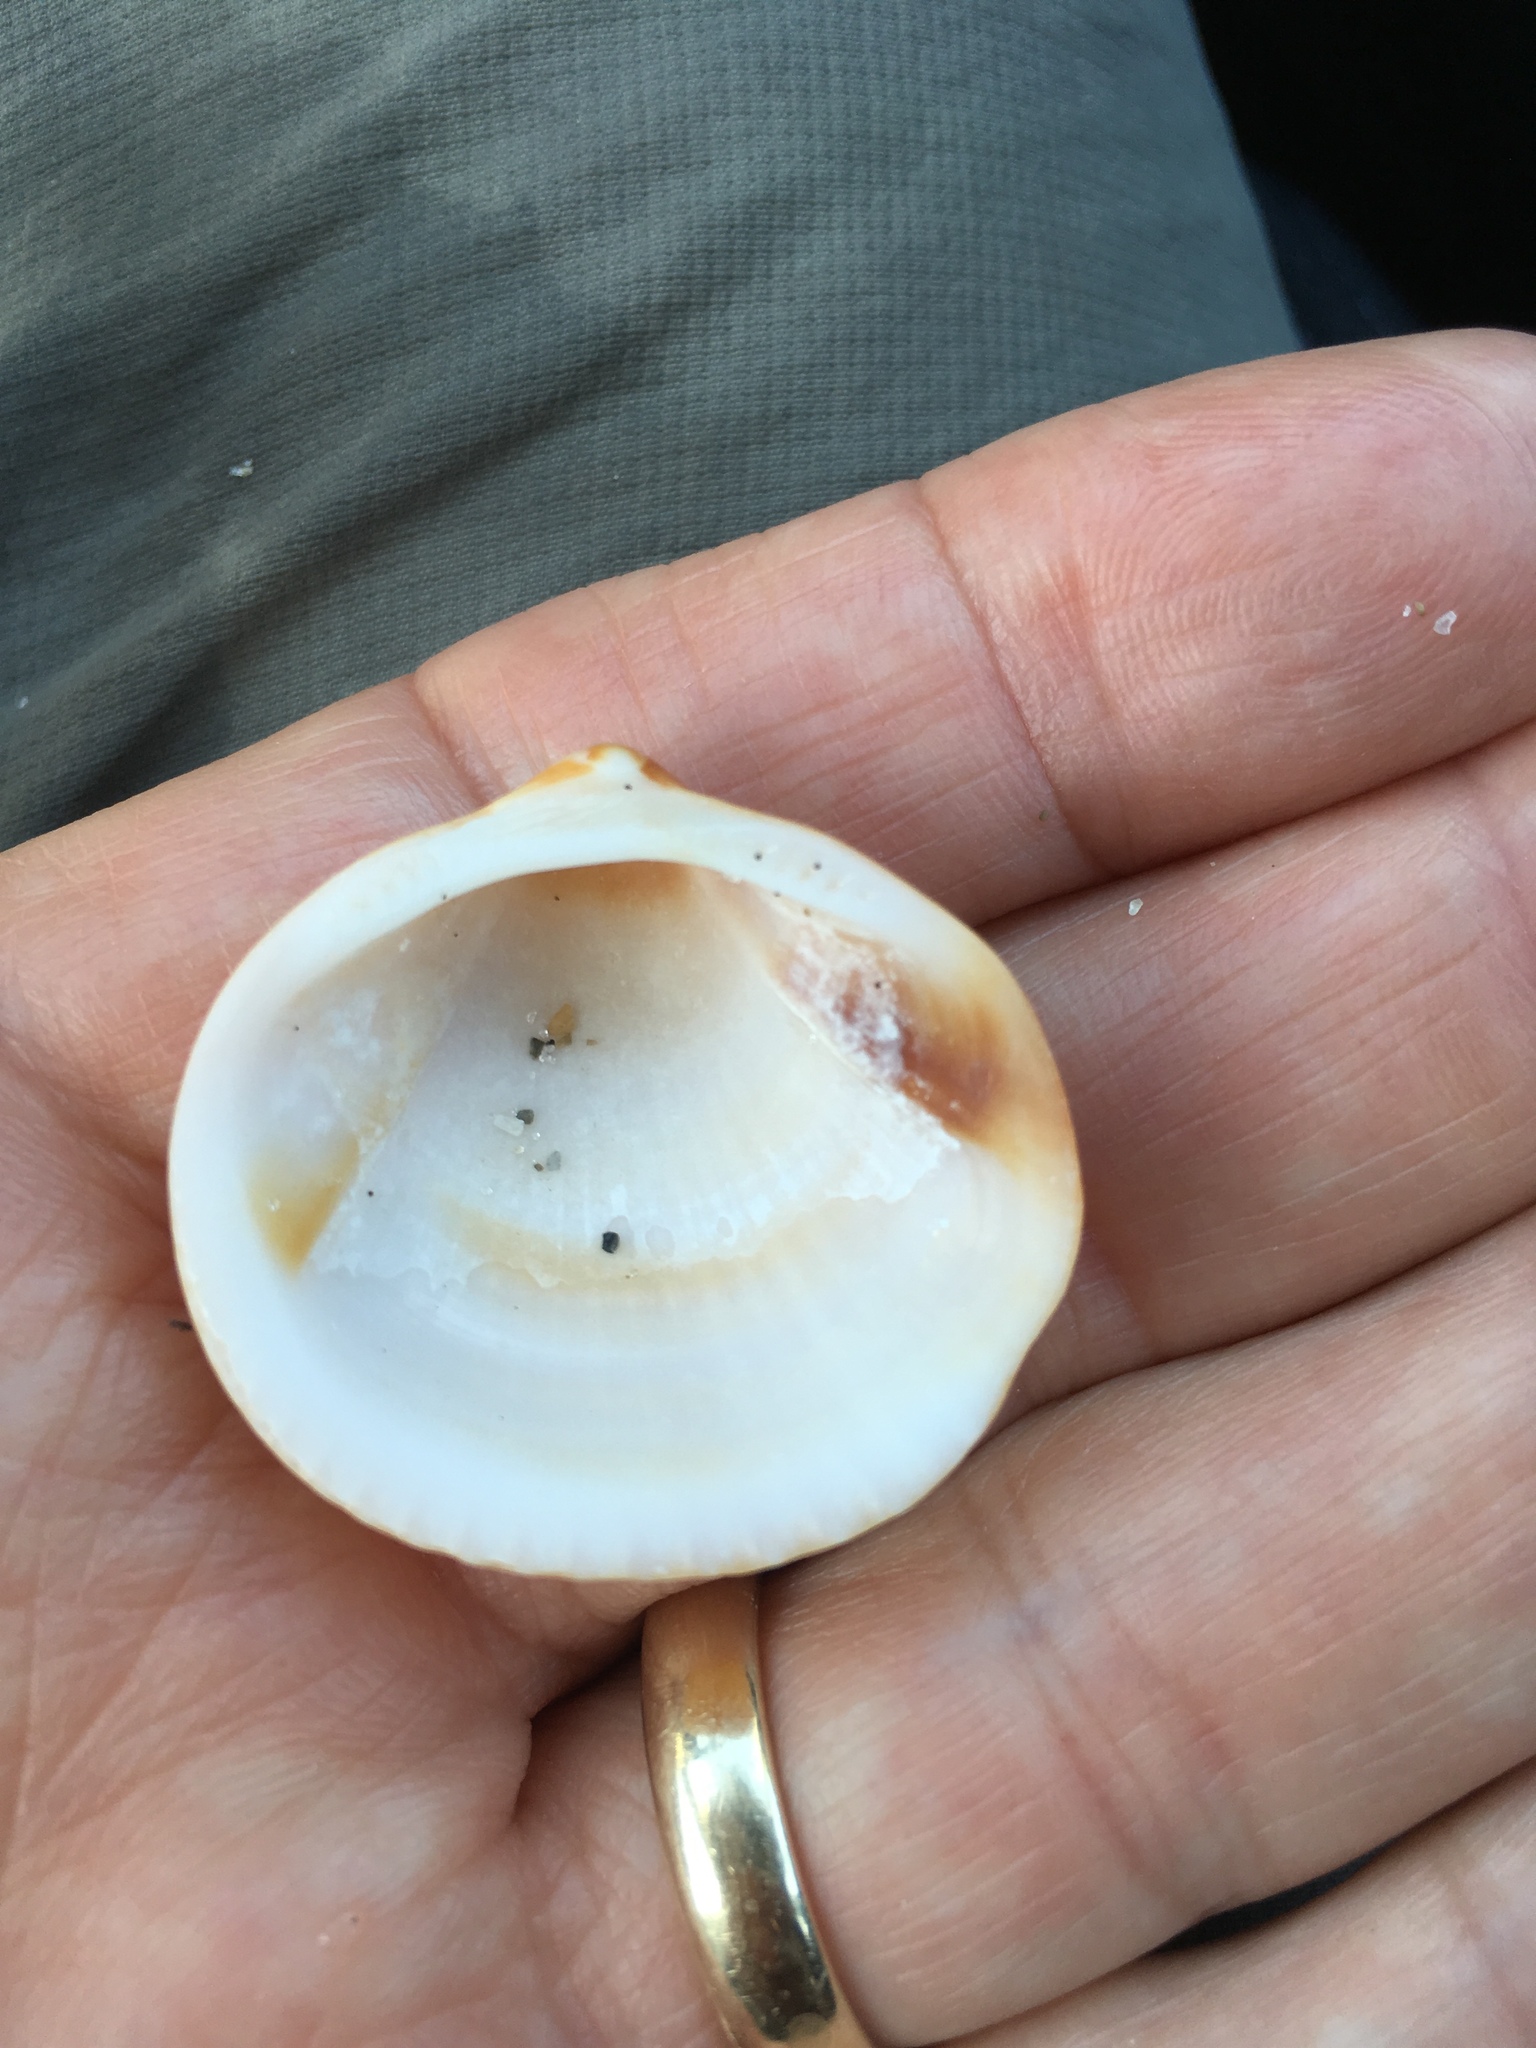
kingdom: Animalia
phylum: Mollusca
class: Bivalvia
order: Arcida
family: Glycymerididae
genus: Glycymeris
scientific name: Glycymeris spectralis
